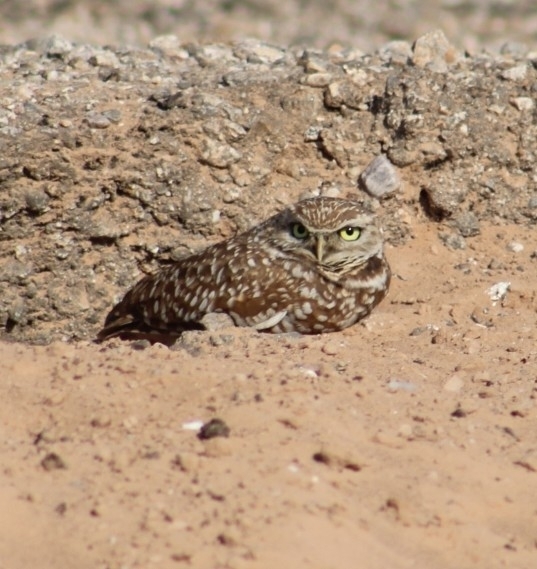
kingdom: Animalia
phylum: Chordata
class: Aves
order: Strigiformes
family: Strigidae
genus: Athene
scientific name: Athene cunicularia
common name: Burrowing owl
